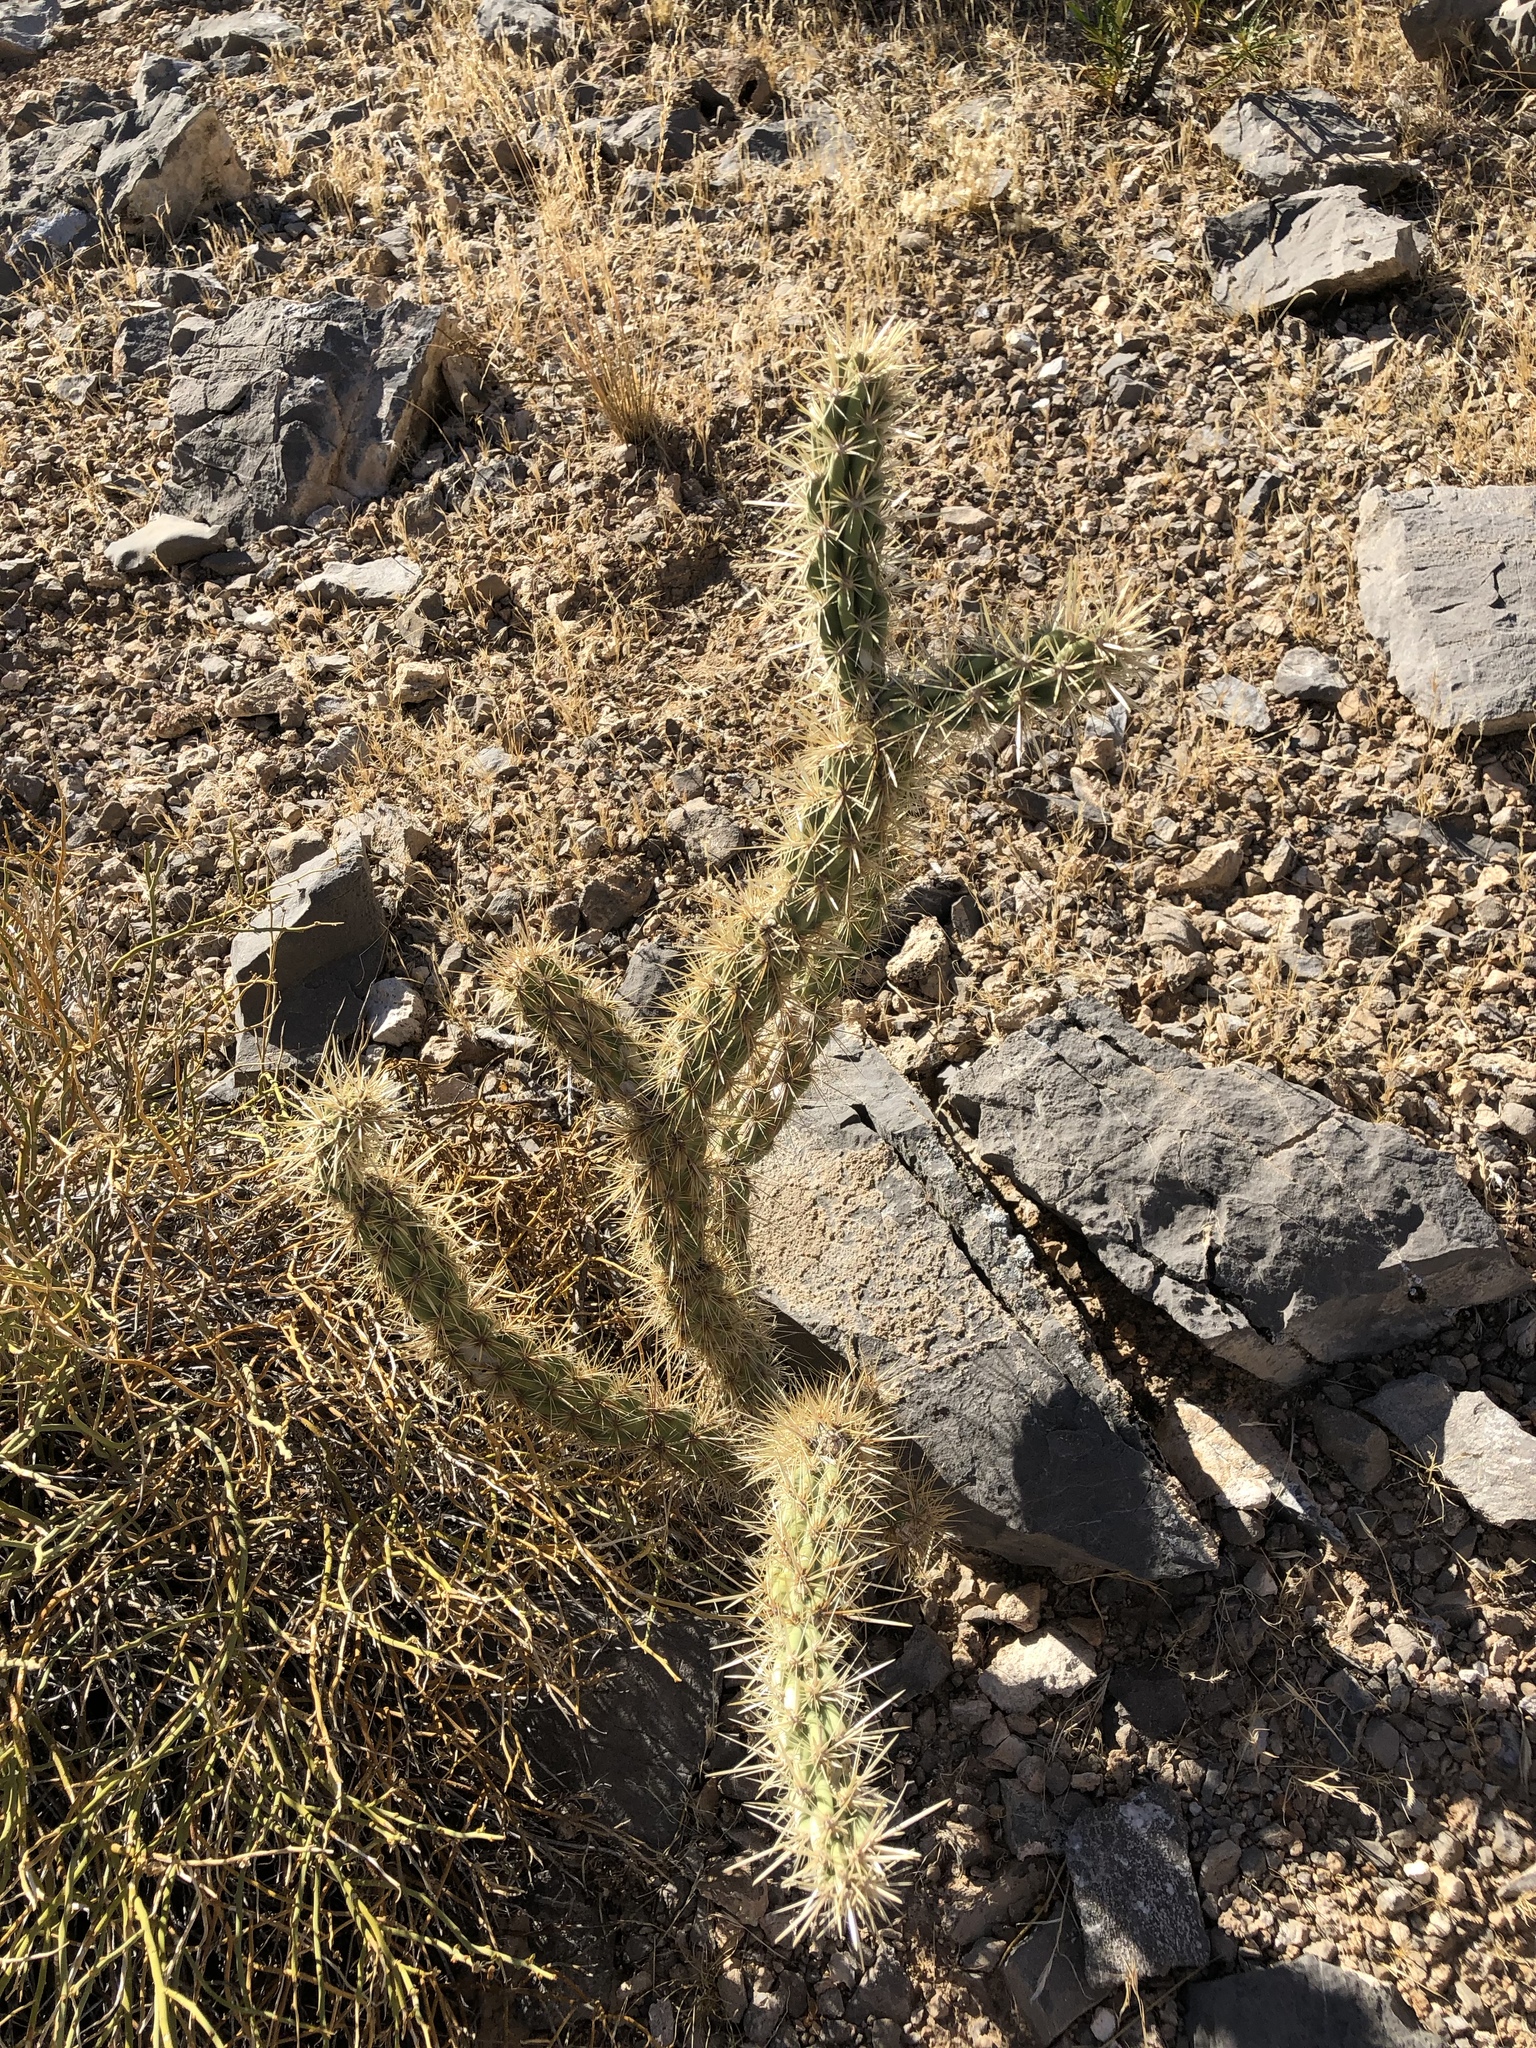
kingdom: Plantae
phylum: Tracheophyta
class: Magnoliopsida
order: Caryophyllales
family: Cactaceae
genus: Cylindropuntia
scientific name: Cylindropuntia acanthocarpa
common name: Buckhorn cholla
